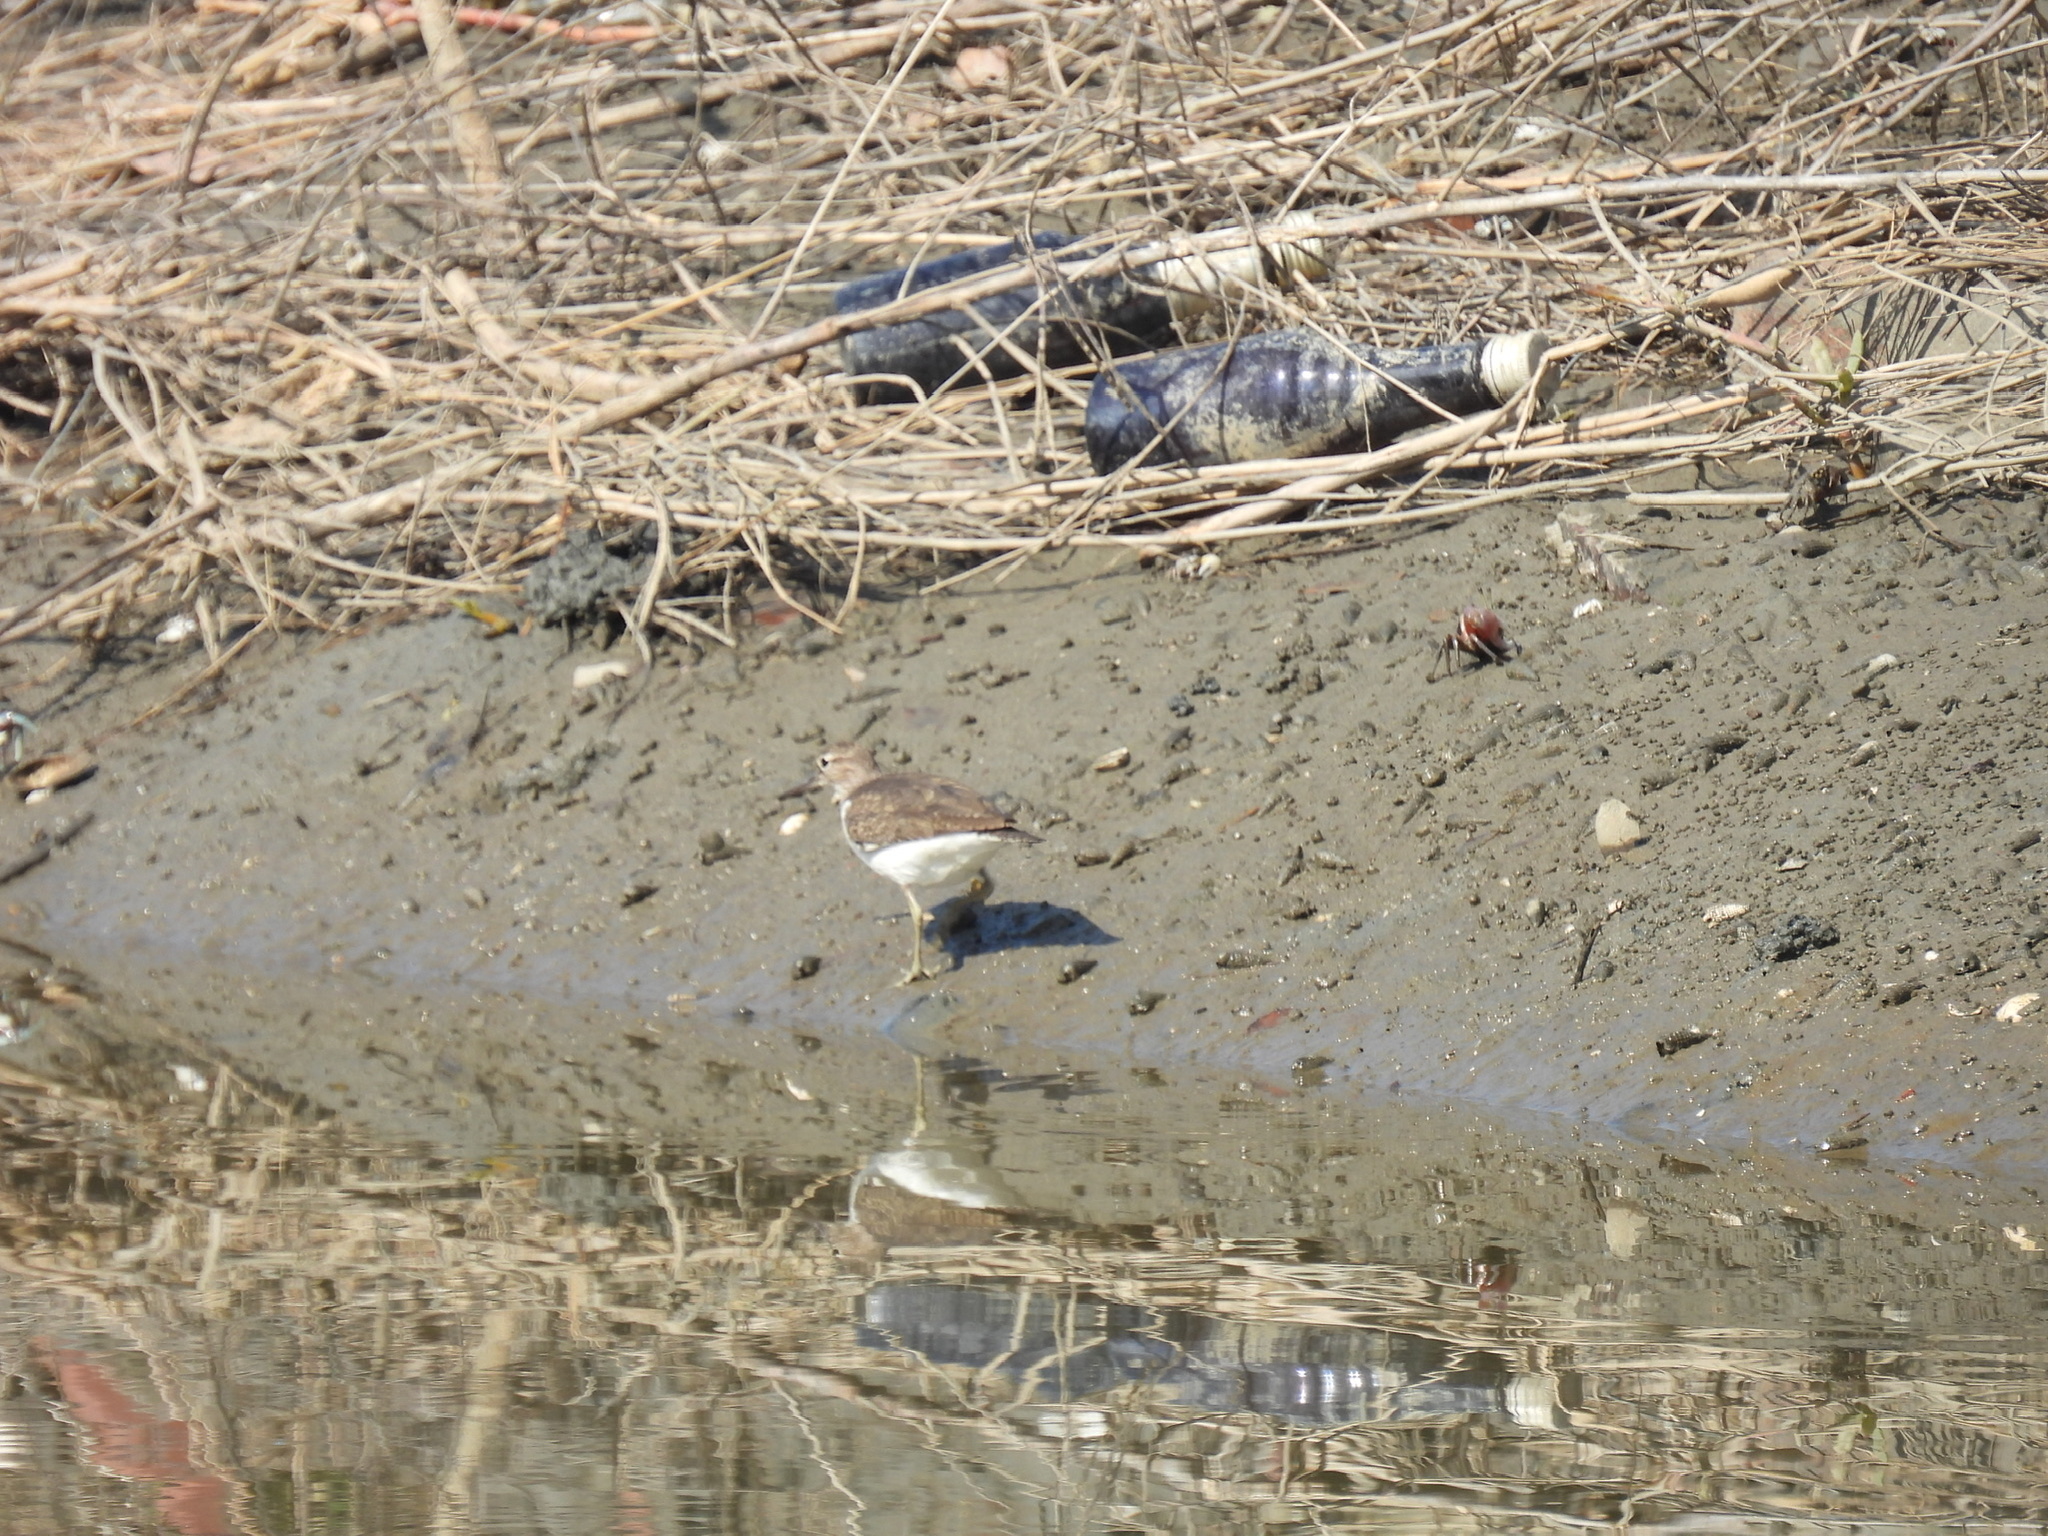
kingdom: Animalia
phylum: Chordata
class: Aves
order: Charadriiformes
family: Scolopacidae
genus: Actitis
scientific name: Actitis hypoleucos
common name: Common sandpiper
